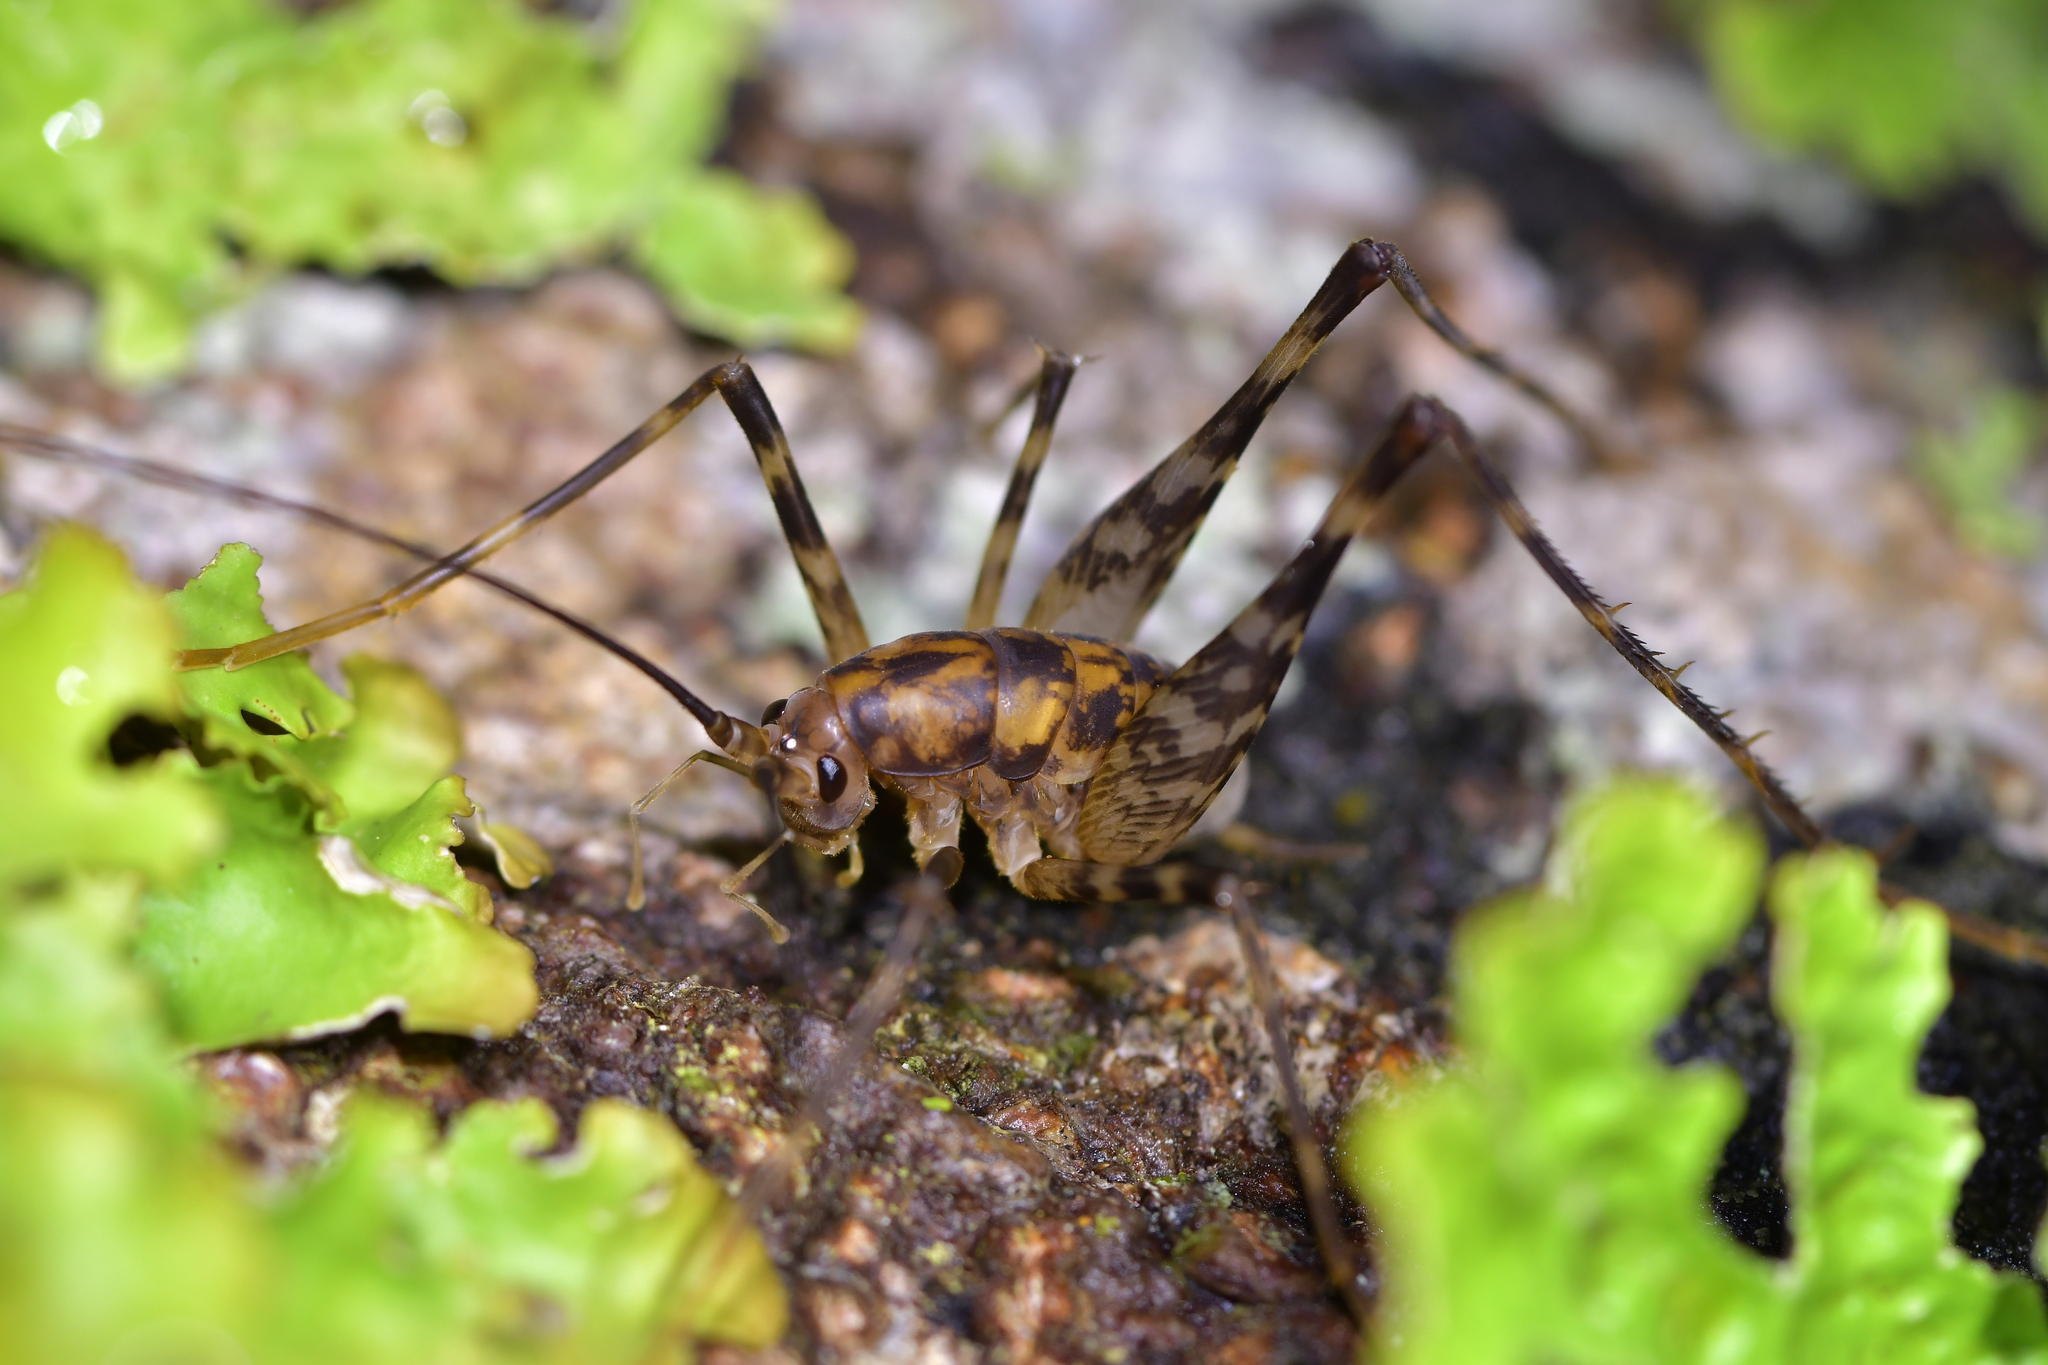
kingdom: Animalia
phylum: Arthropoda
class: Insecta
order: Orthoptera
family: Rhaphidophoridae
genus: Miotopus
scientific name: Miotopus richardsae
